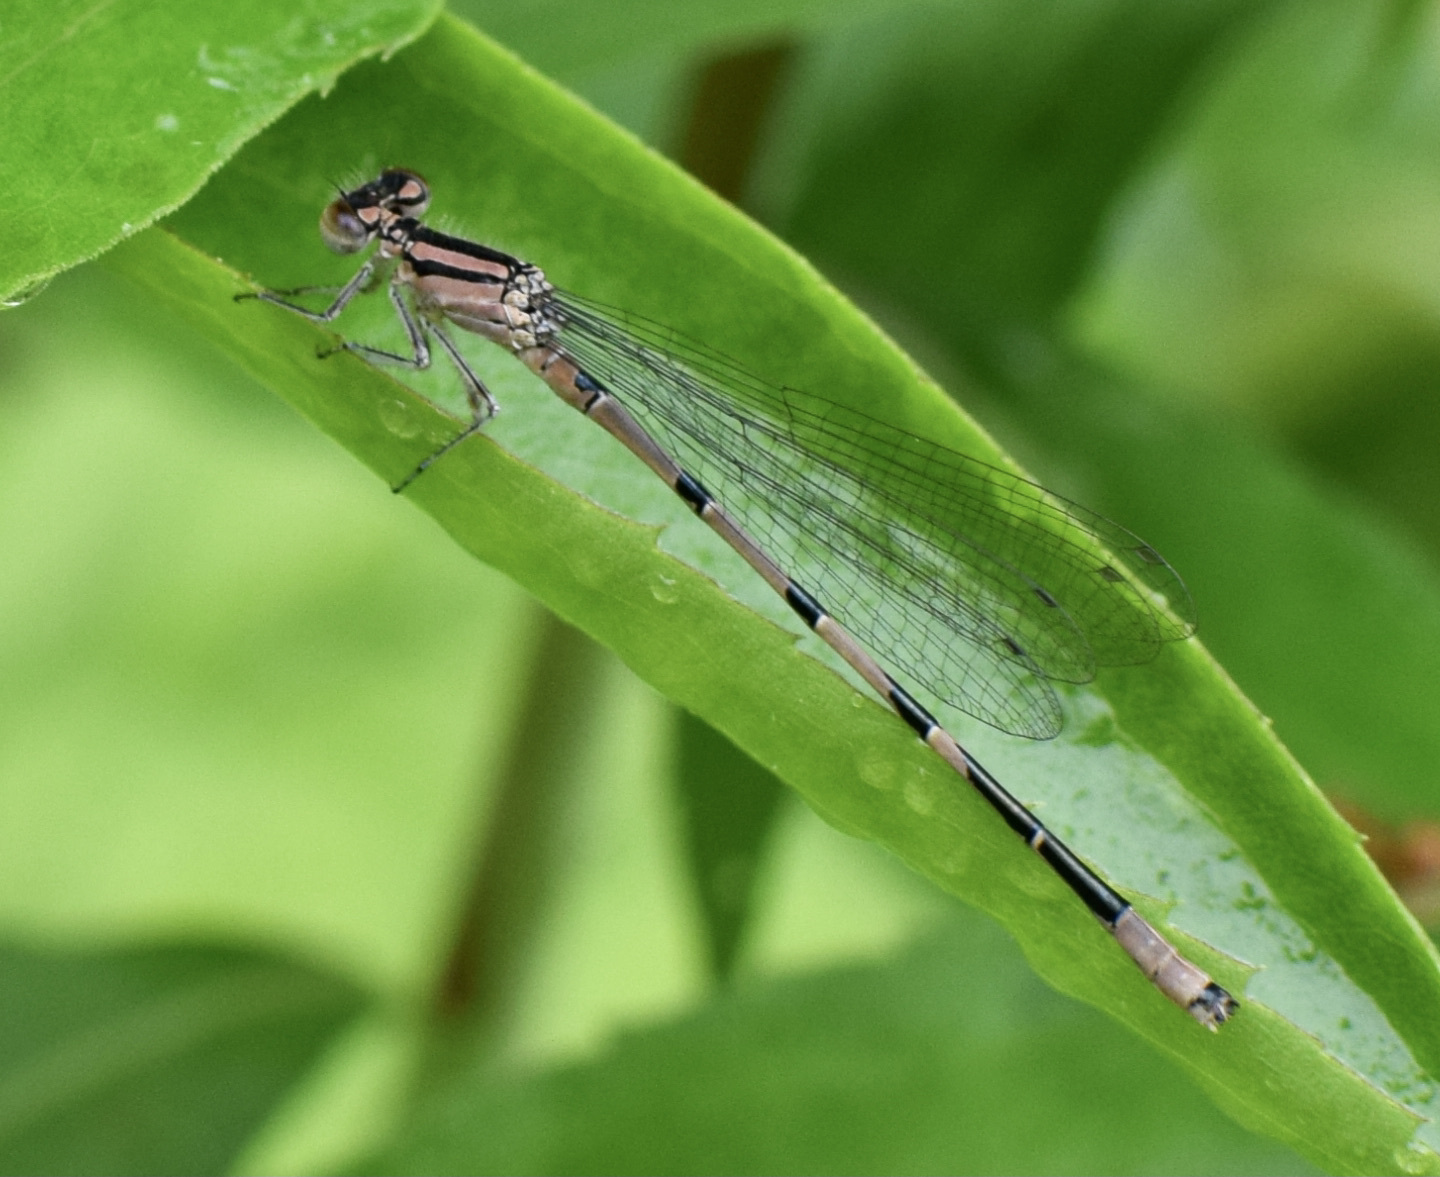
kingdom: Animalia
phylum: Arthropoda
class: Insecta
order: Odonata
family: Coenagrionidae
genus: Enallagma
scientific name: Enallagma ebrium
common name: Marsh bluet
